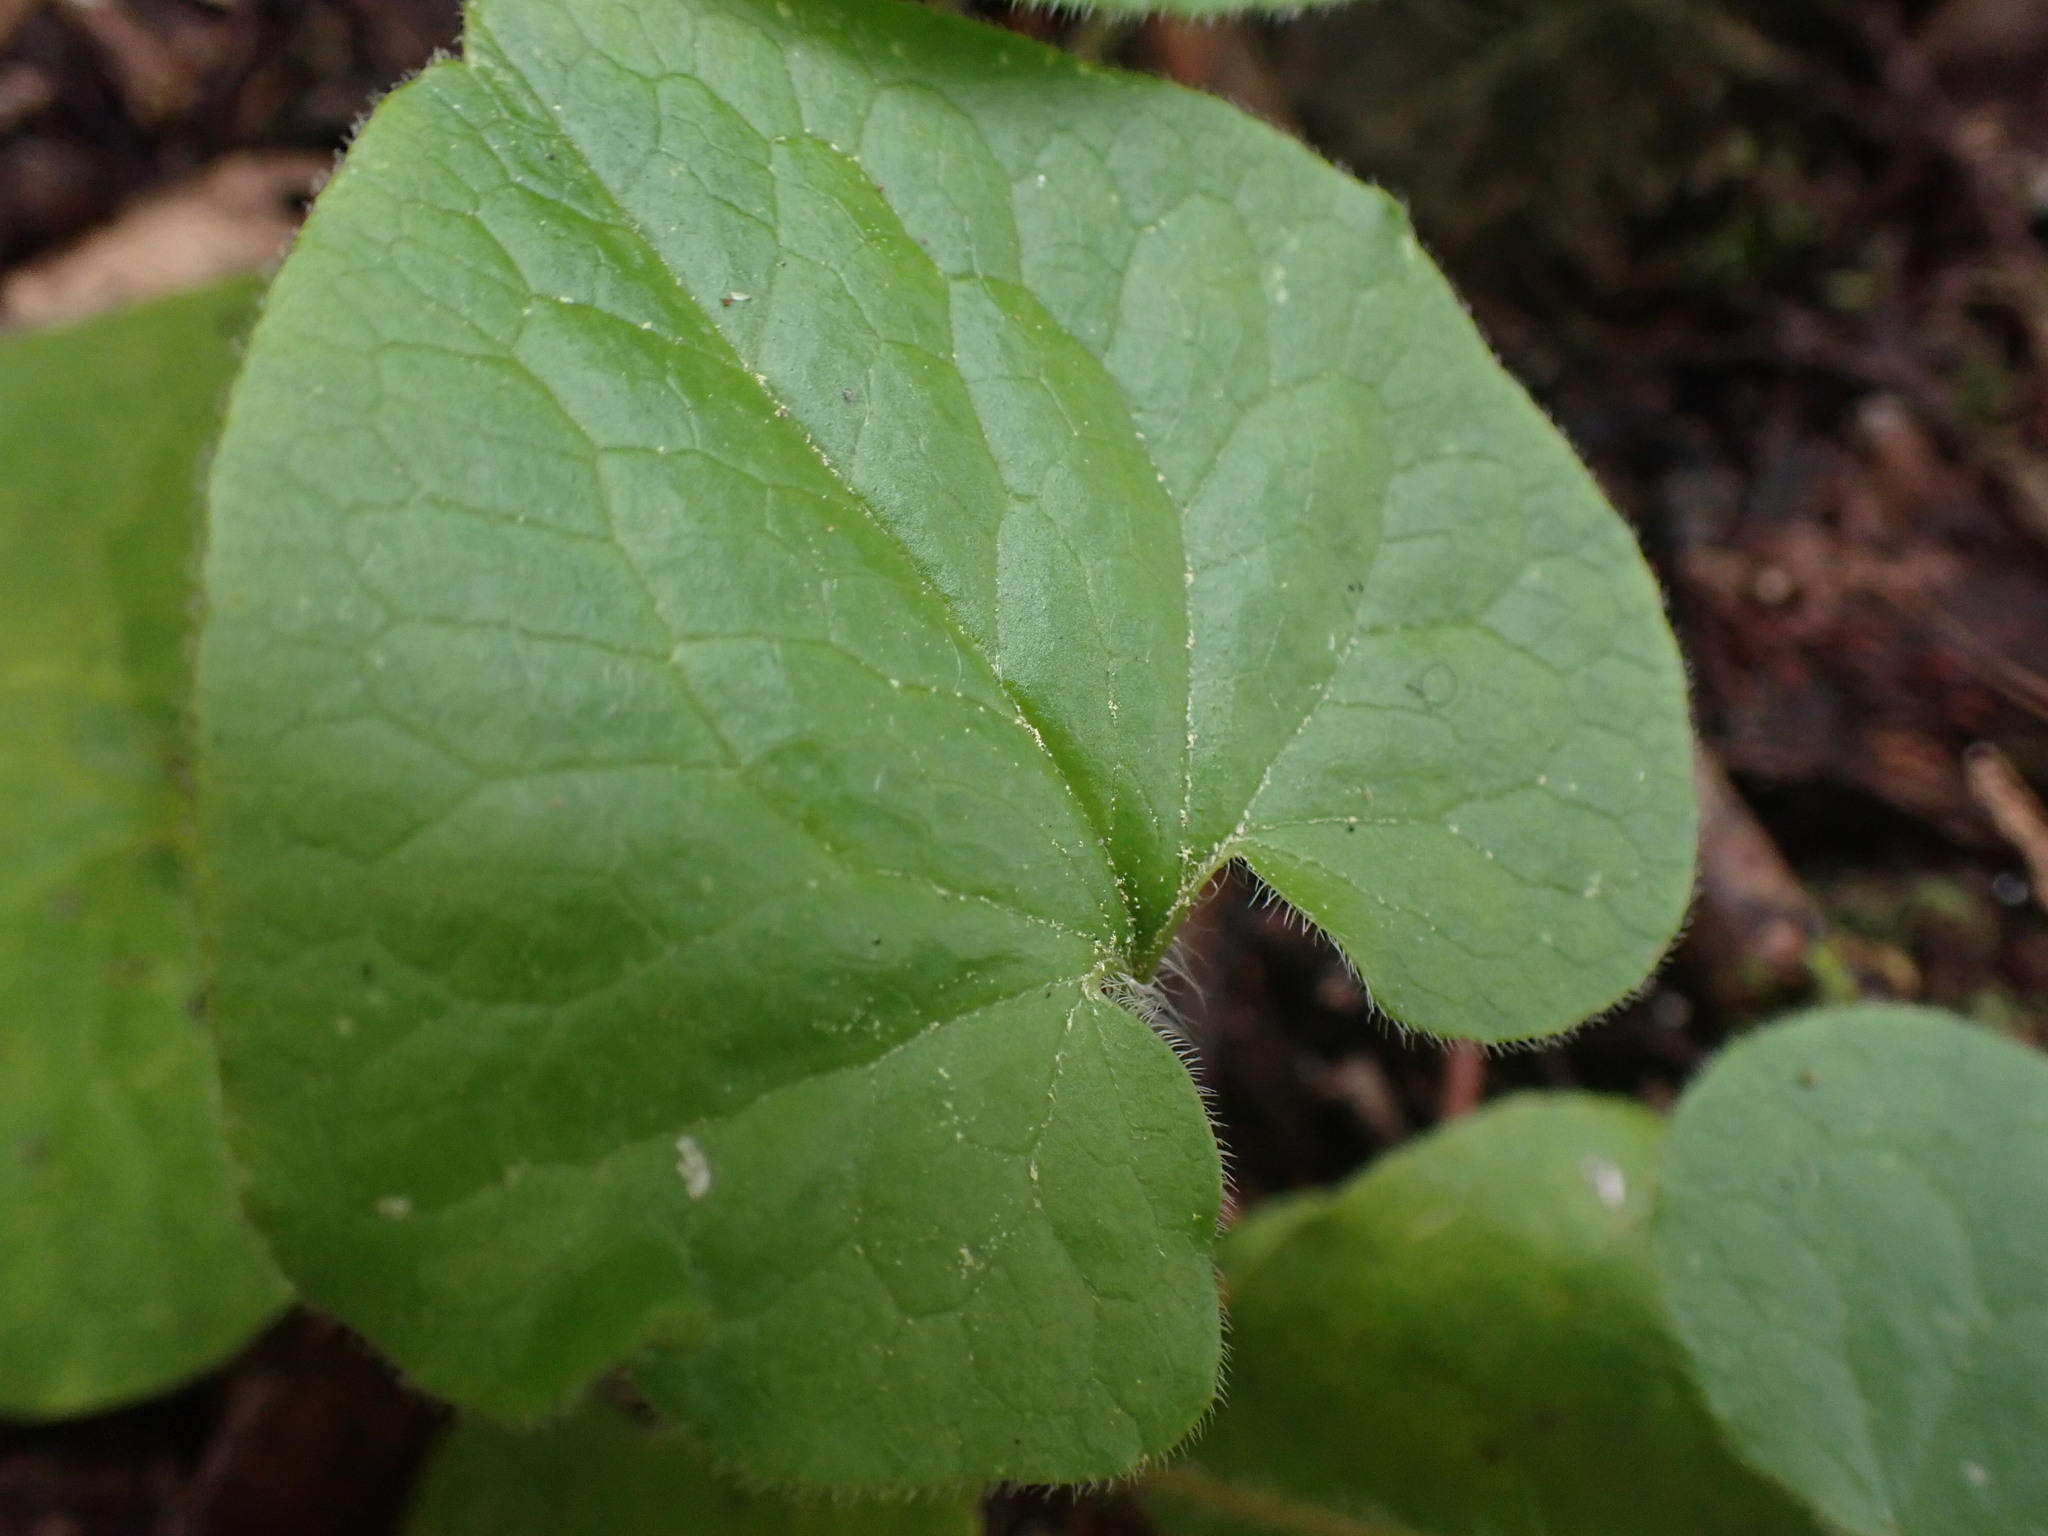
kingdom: Plantae
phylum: Tracheophyta
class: Magnoliopsida
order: Piperales
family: Aristolochiaceae
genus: Asarum
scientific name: Asarum caudatum
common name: Wild ginger
